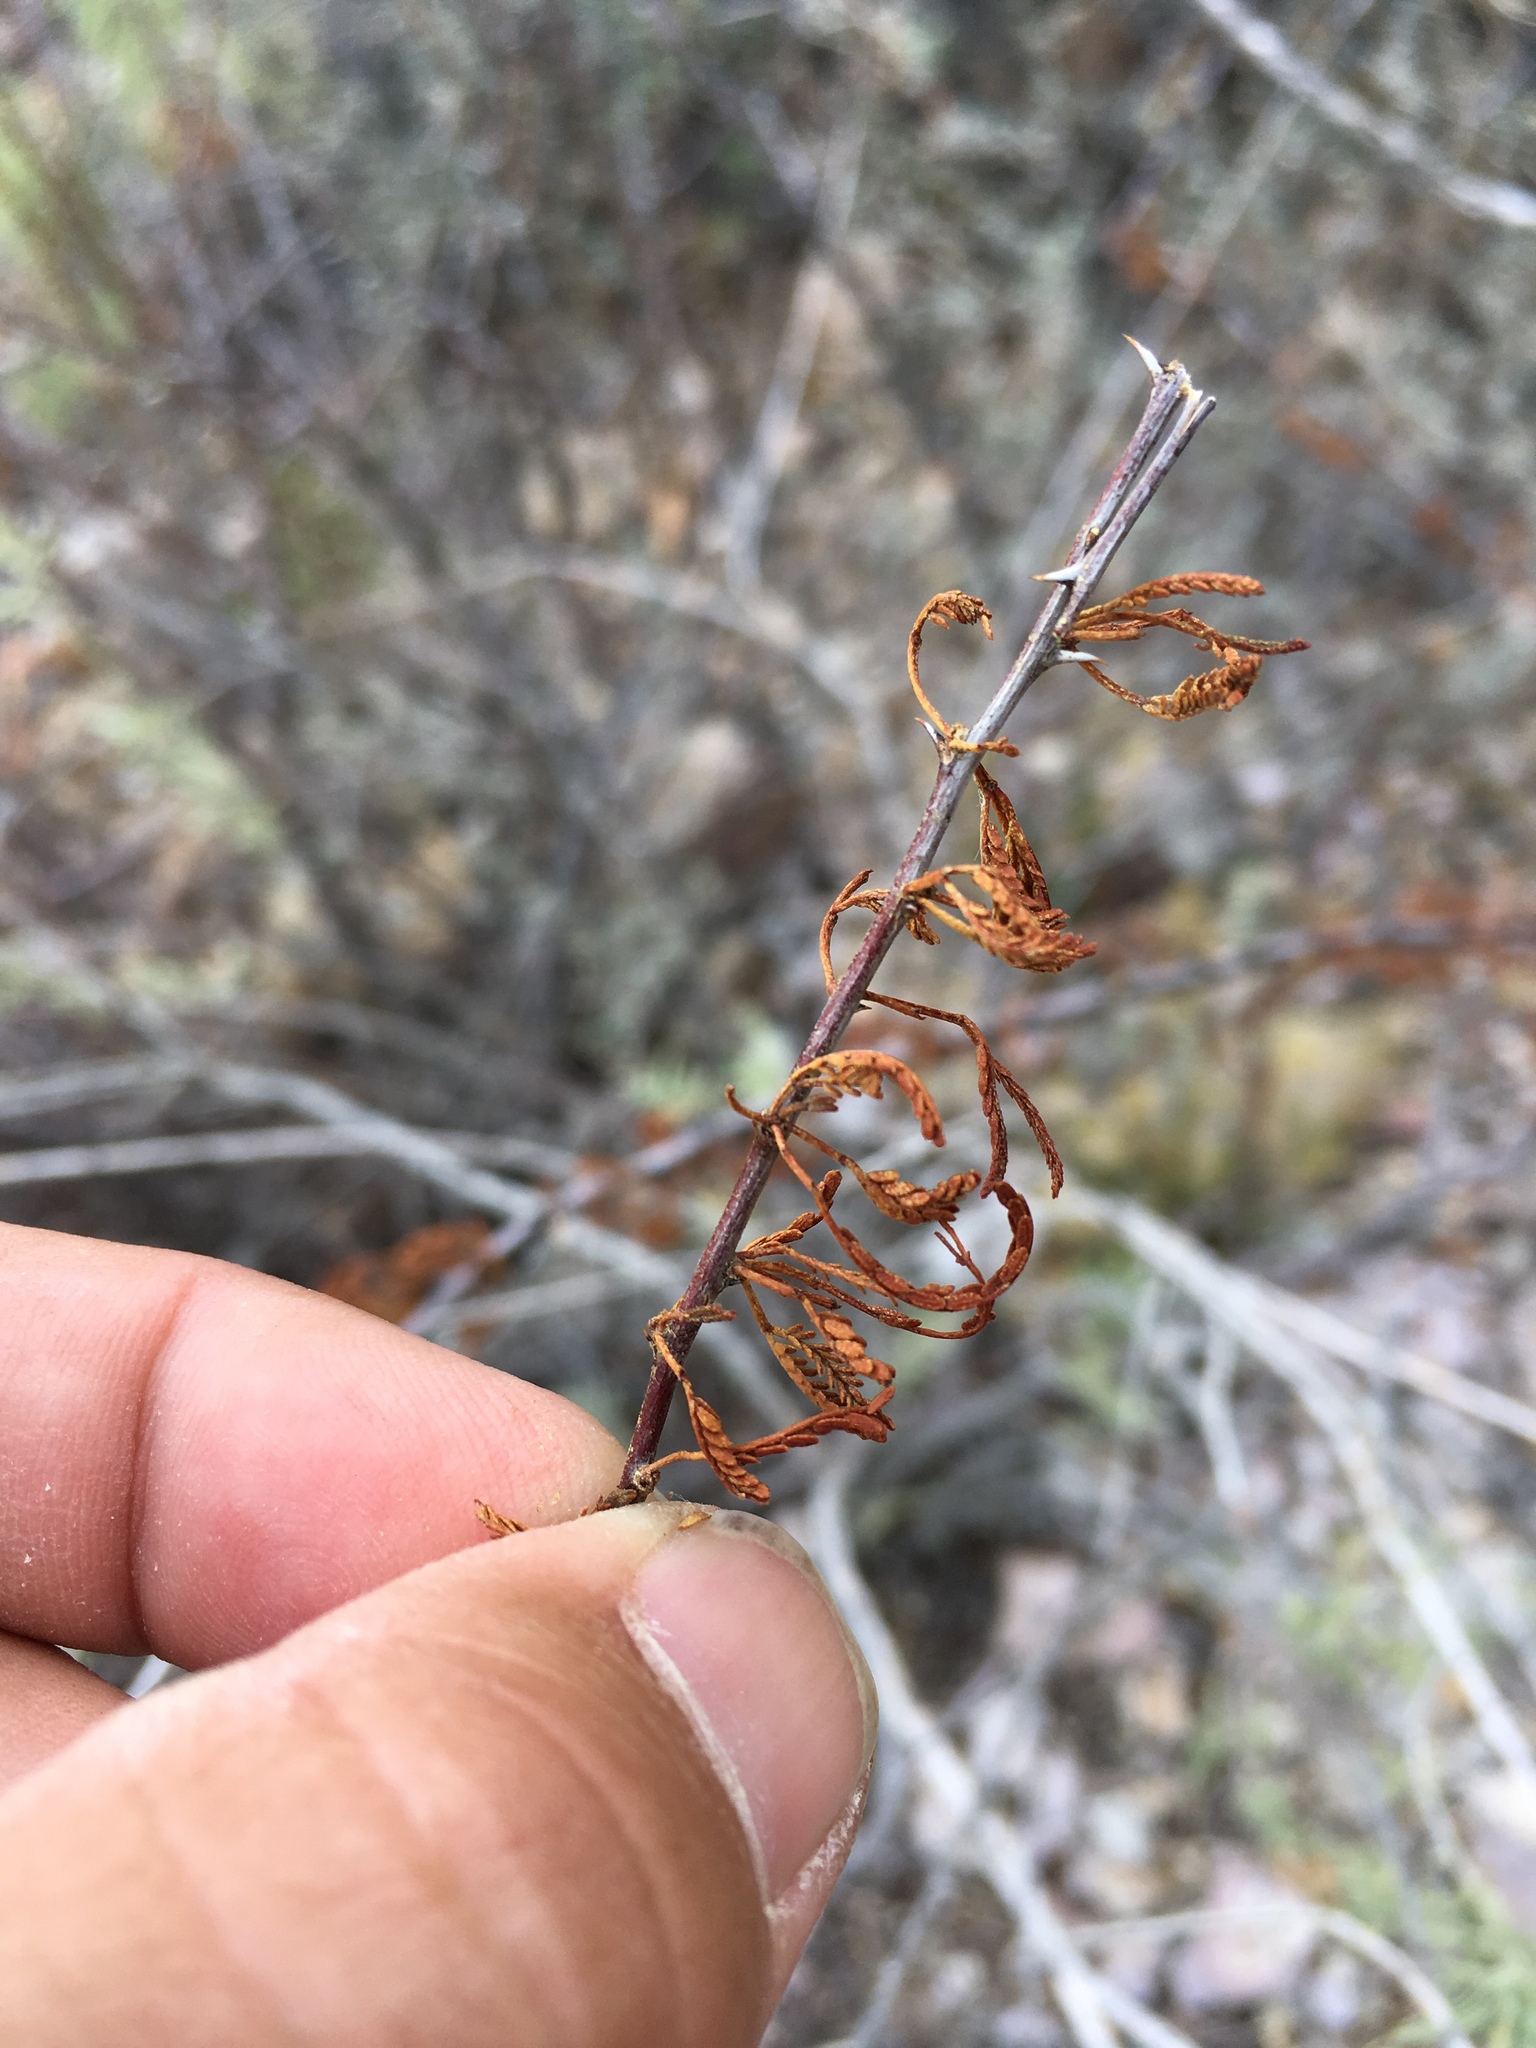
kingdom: Plantae
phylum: Tracheophyta
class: Magnoliopsida
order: Fabales
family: Fabaceae
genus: Vachellia
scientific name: Vachellia vernicosa
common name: Viscid acacia
